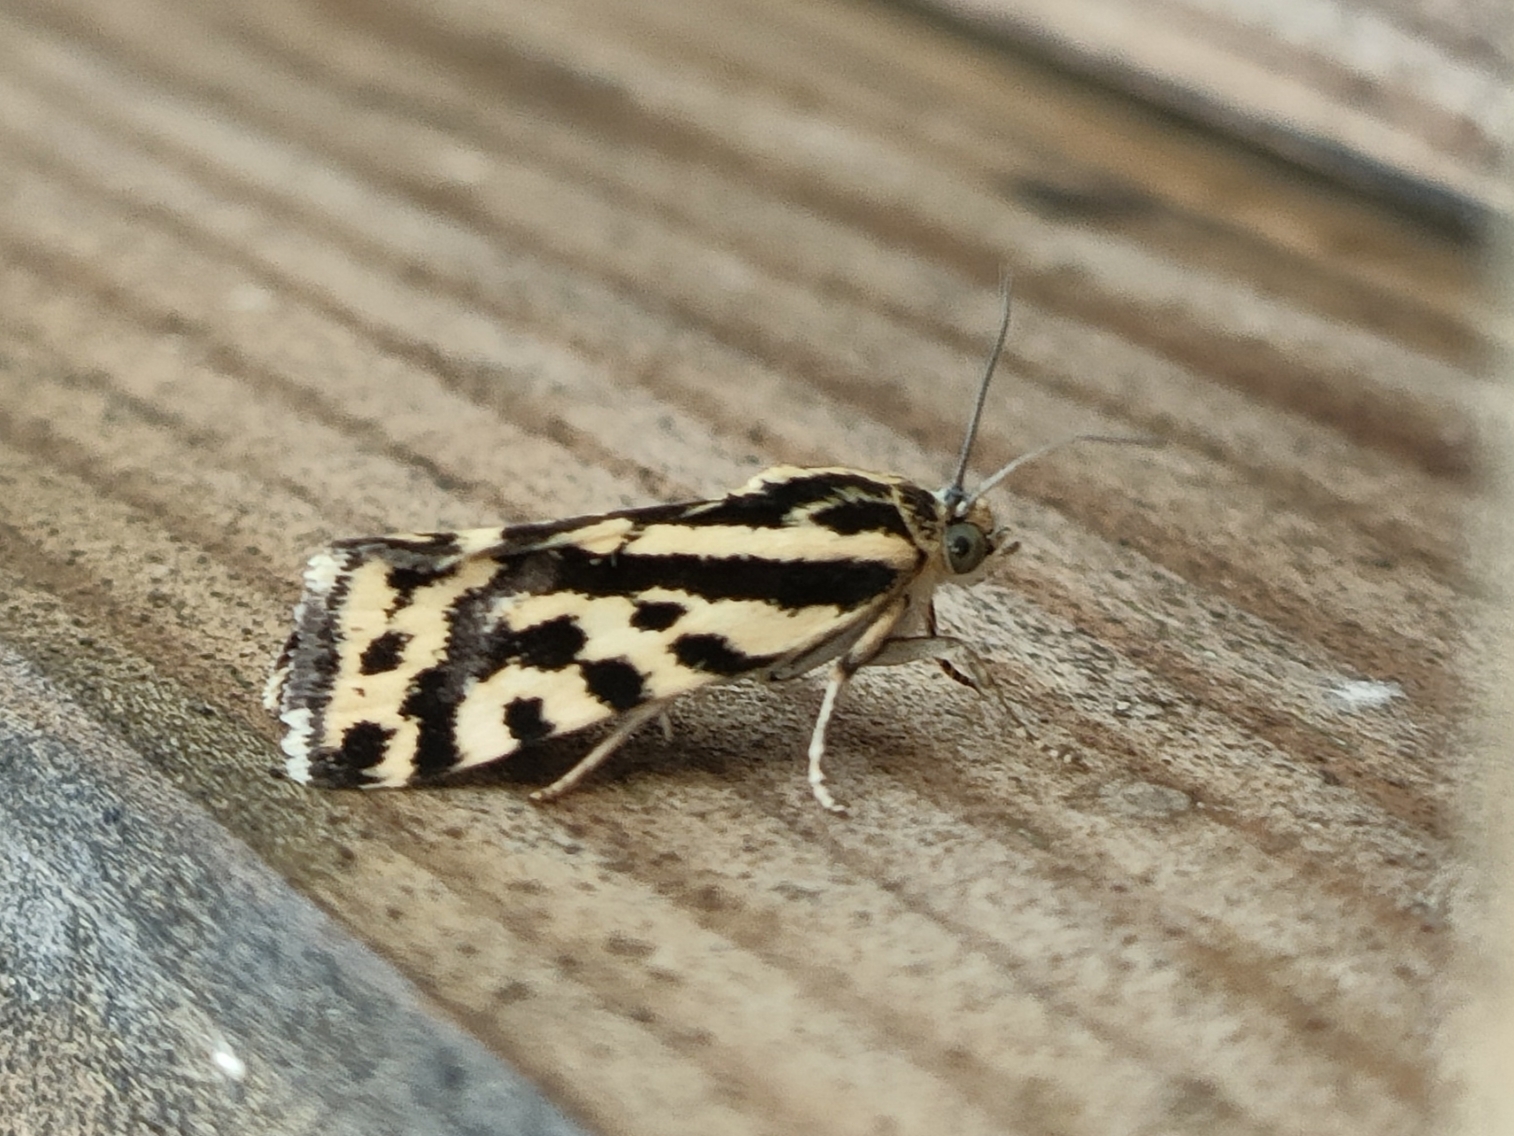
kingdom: Animalia
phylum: Arthropoda
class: Insecta
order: Lepidoptera
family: Noctuidae
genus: Acontia
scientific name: Acontia trabealis
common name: Spotted sulphur
